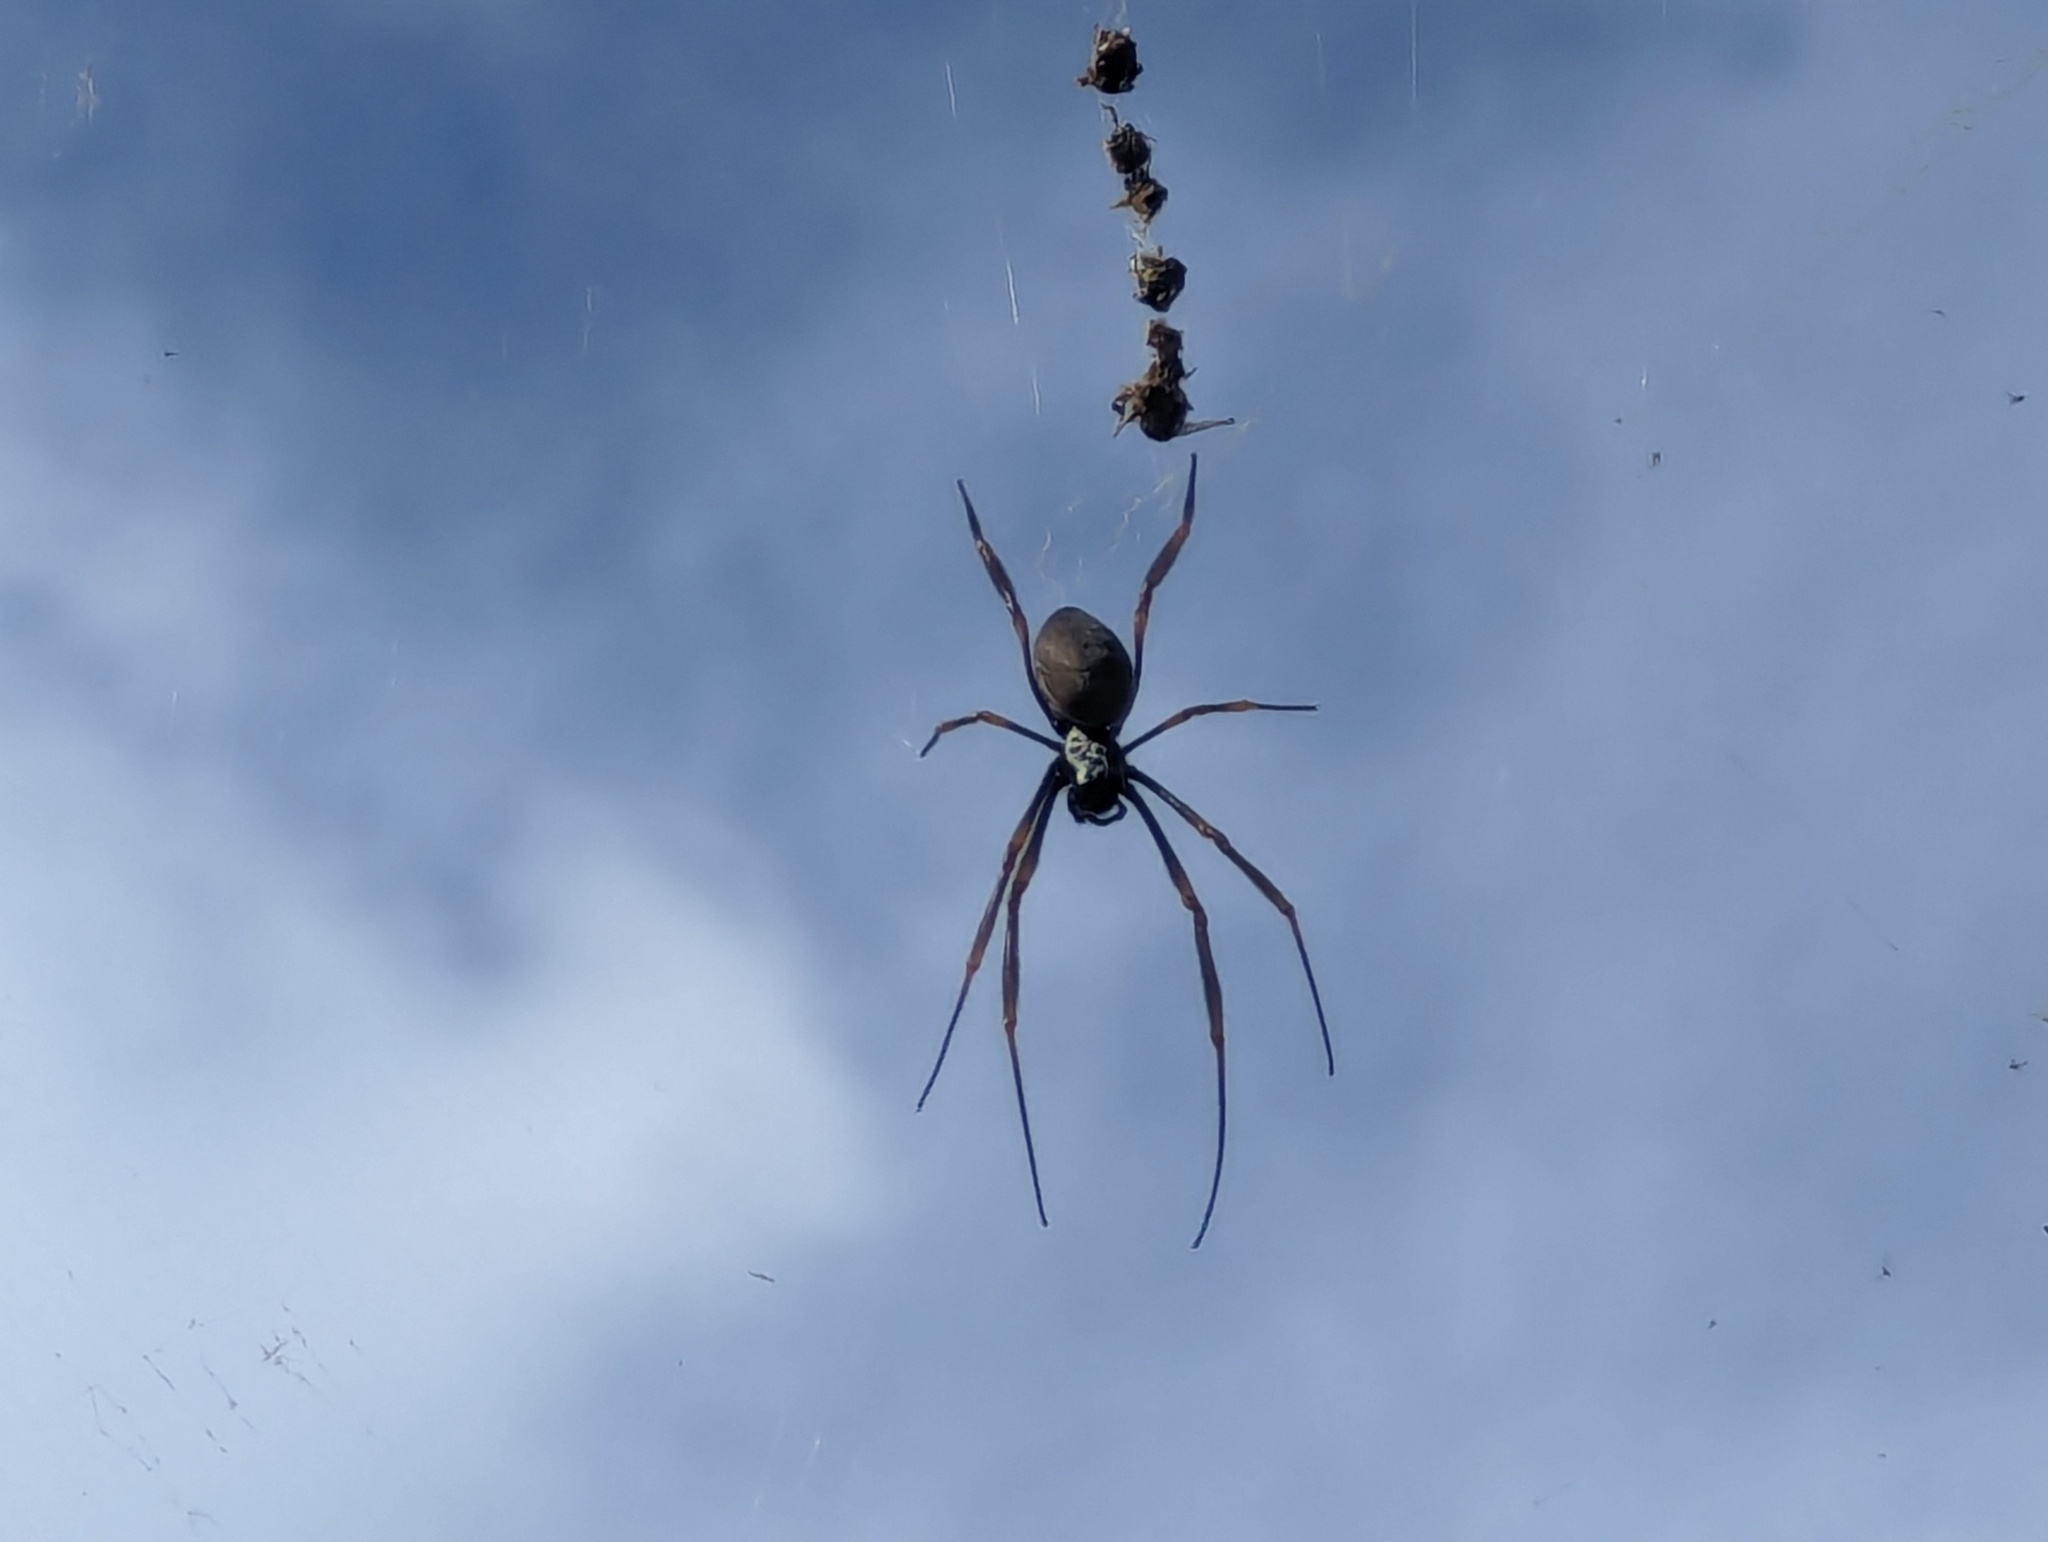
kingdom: Animalia
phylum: Arthropoda
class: Arachnida
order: Araneae
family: Araneidae
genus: Trichonephila
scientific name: Trichonephila plumipes
